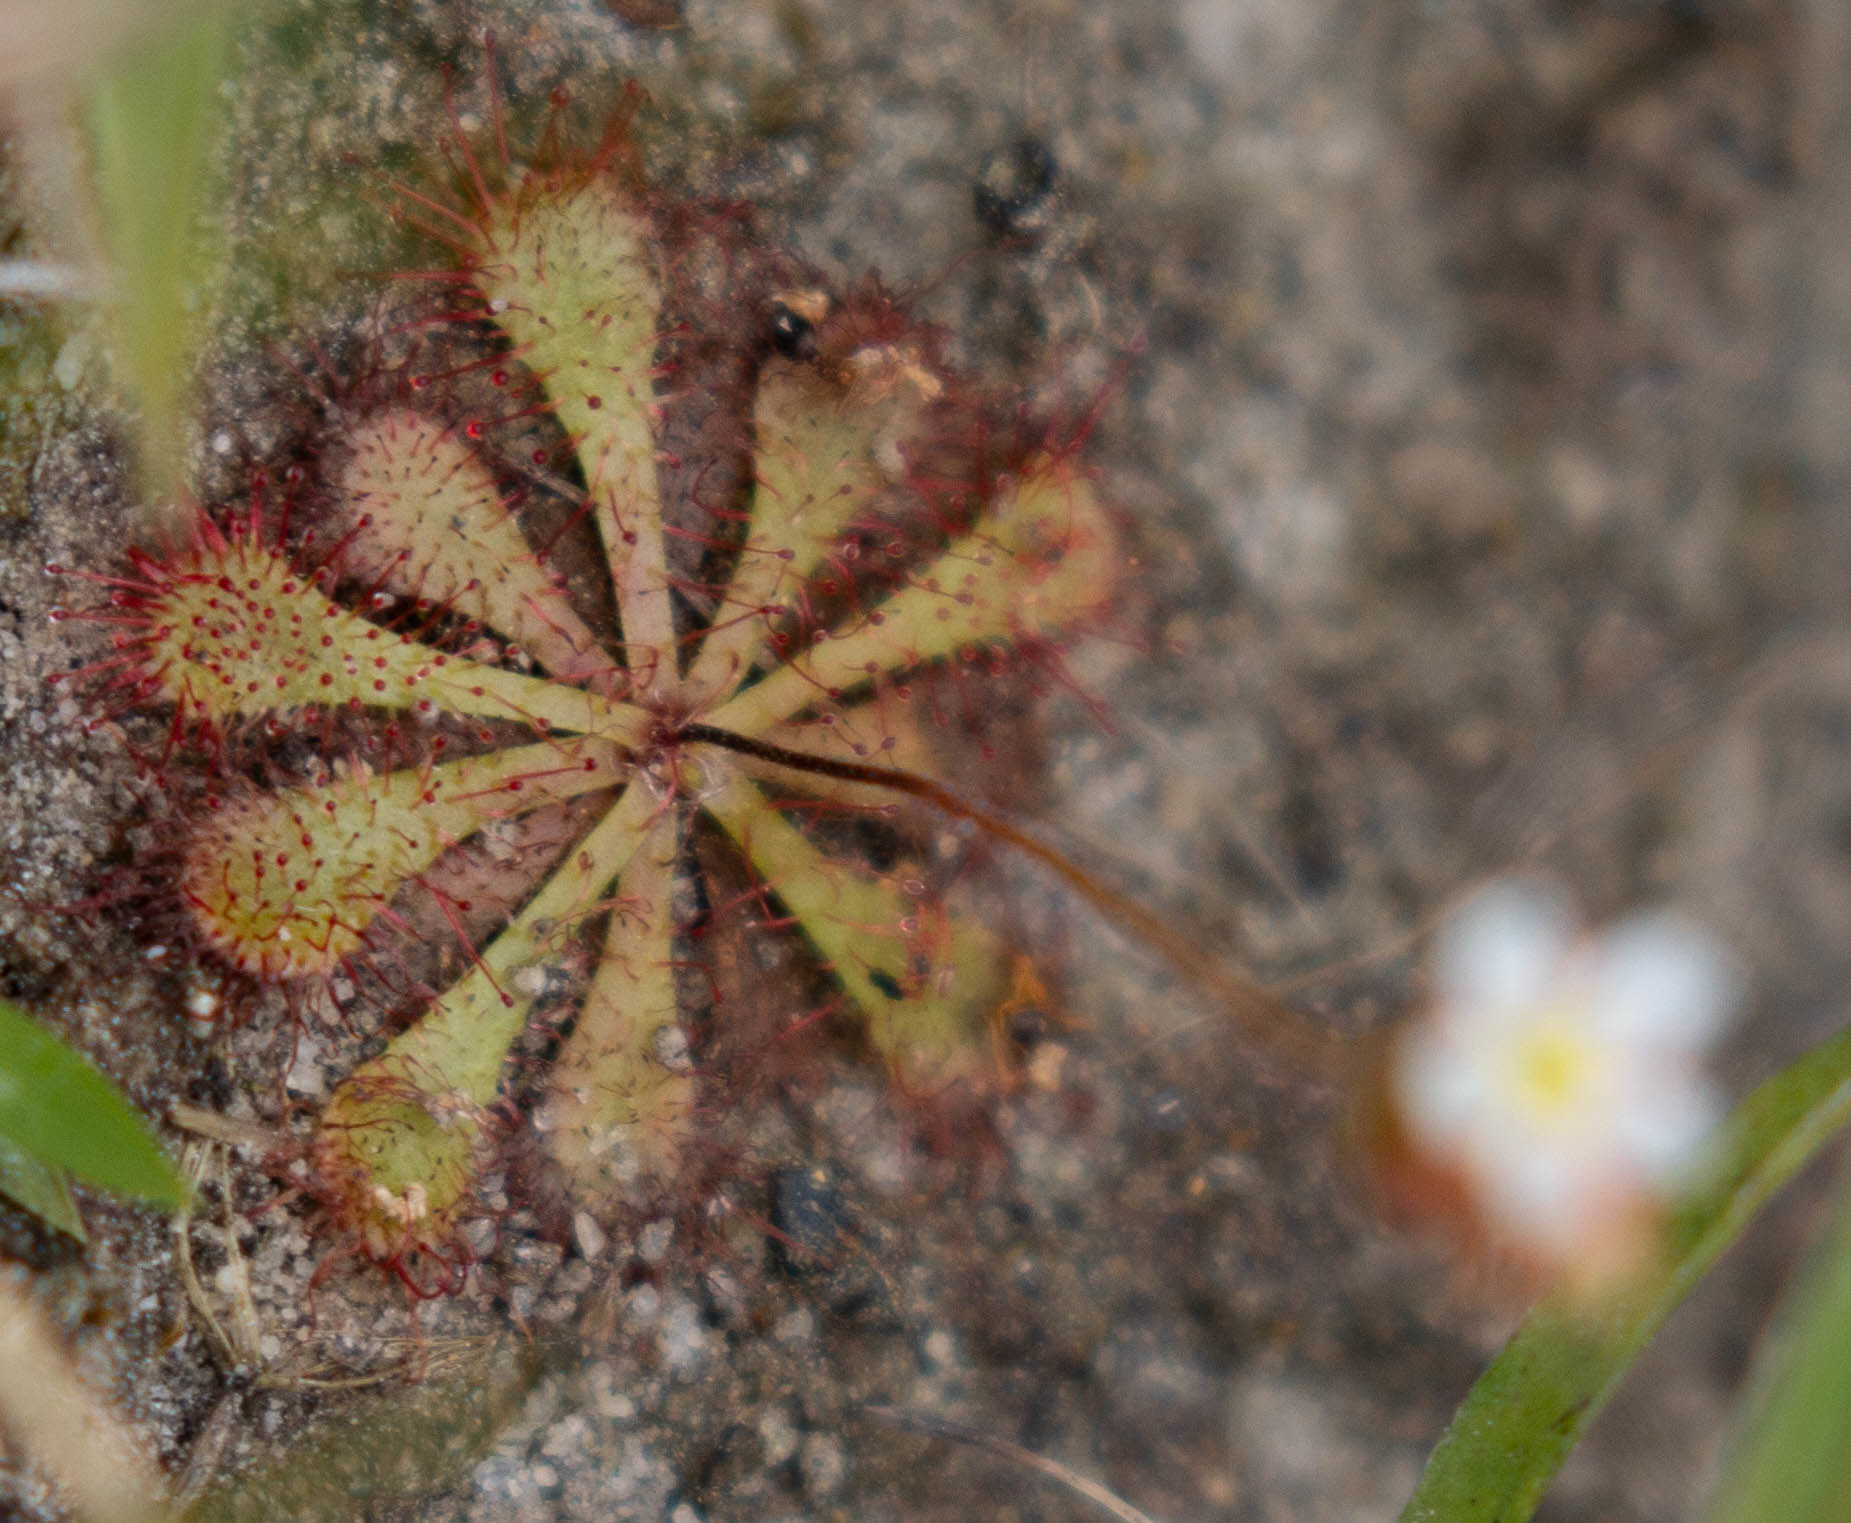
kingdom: Plantae
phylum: Tracheophyta
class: Magnoliopsida
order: Caryophyllales
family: Droseraceae
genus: Drosera
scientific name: Drosera brevifolia
